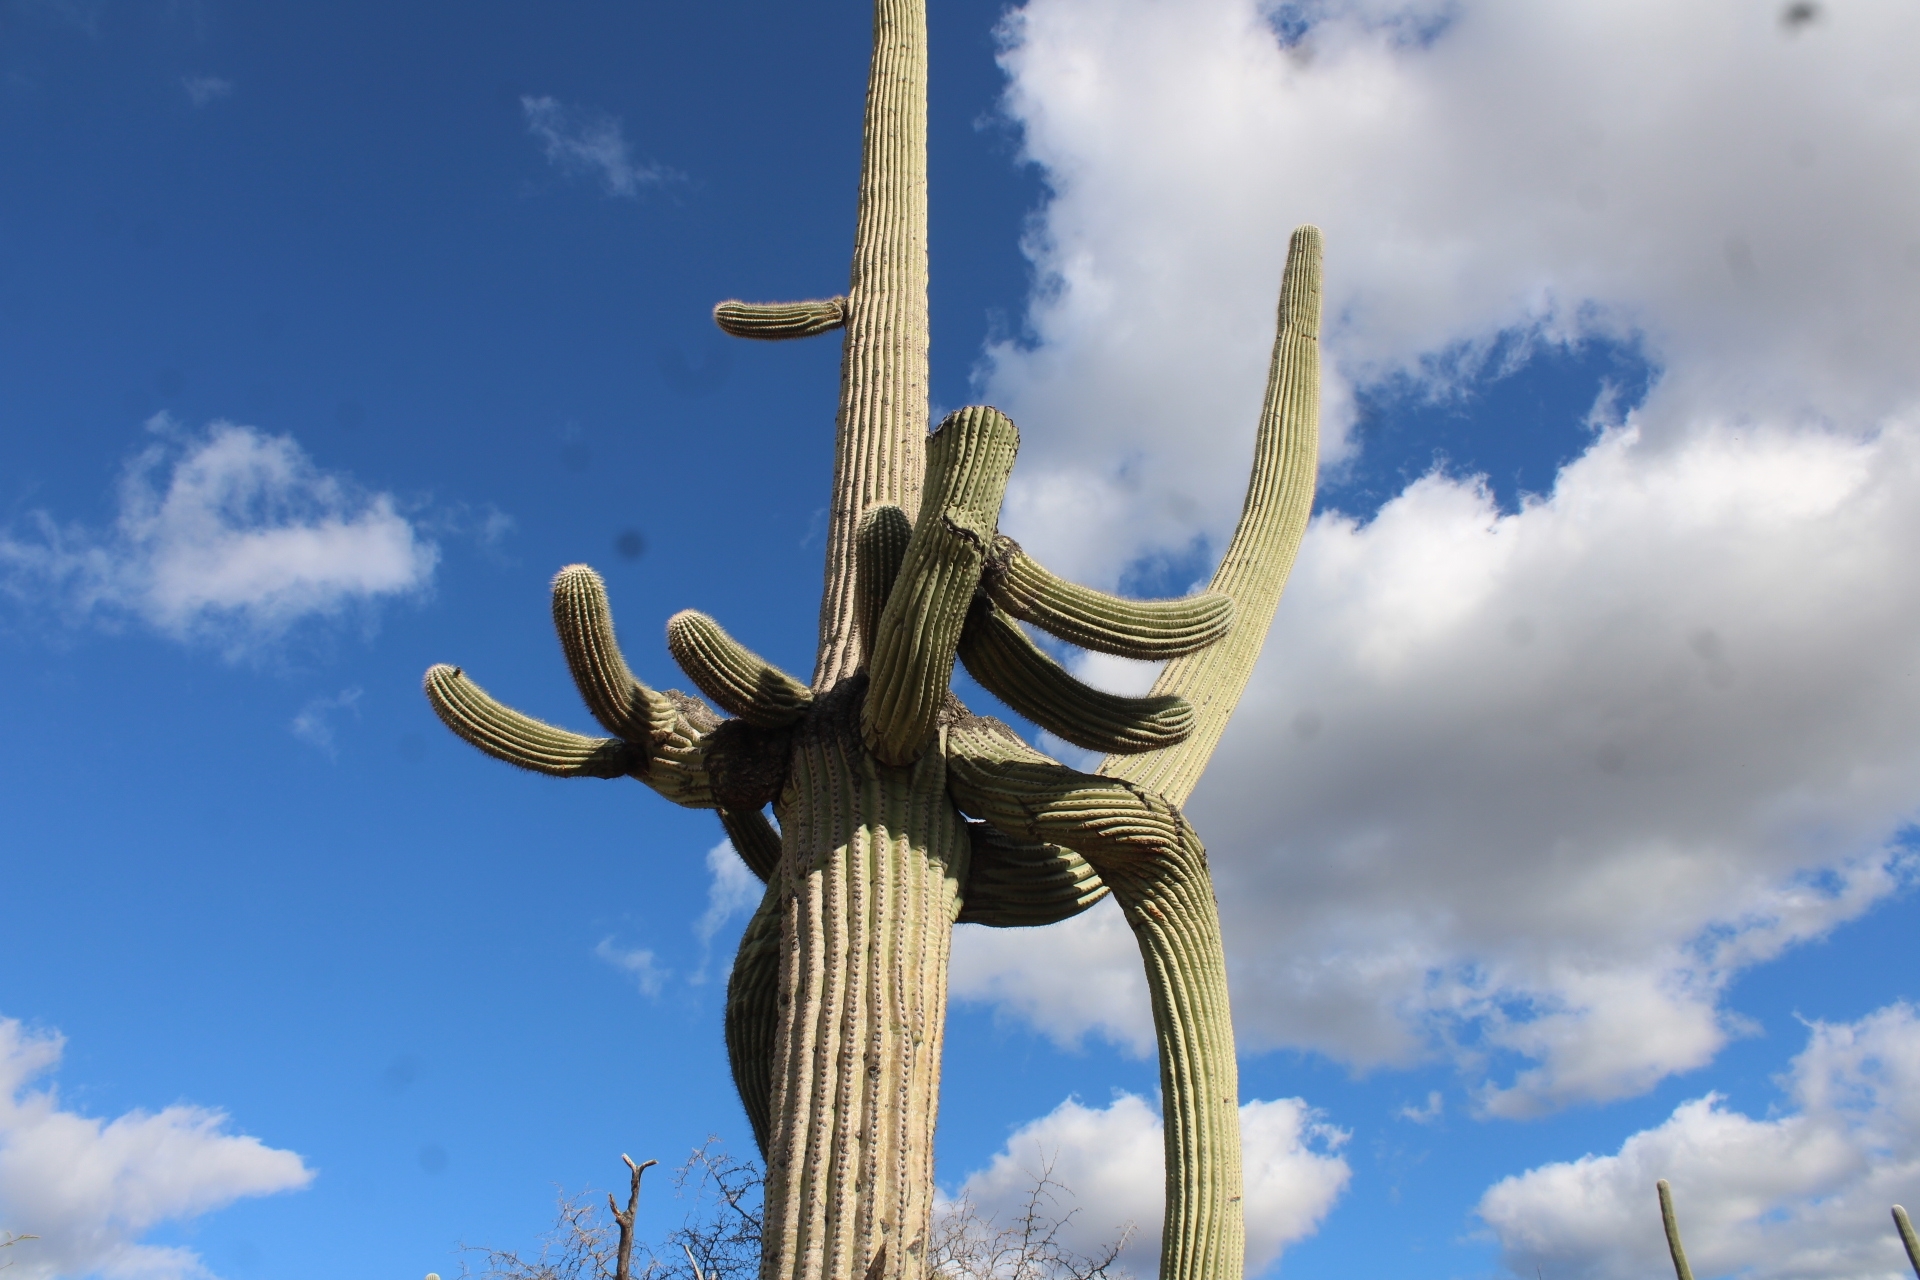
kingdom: Plantae
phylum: Tracheophyta
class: Magnoliopsida
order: Caryophyllales
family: Cactaceae
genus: Carnegiea
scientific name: Carnegiea gigantea
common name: Saguaro
